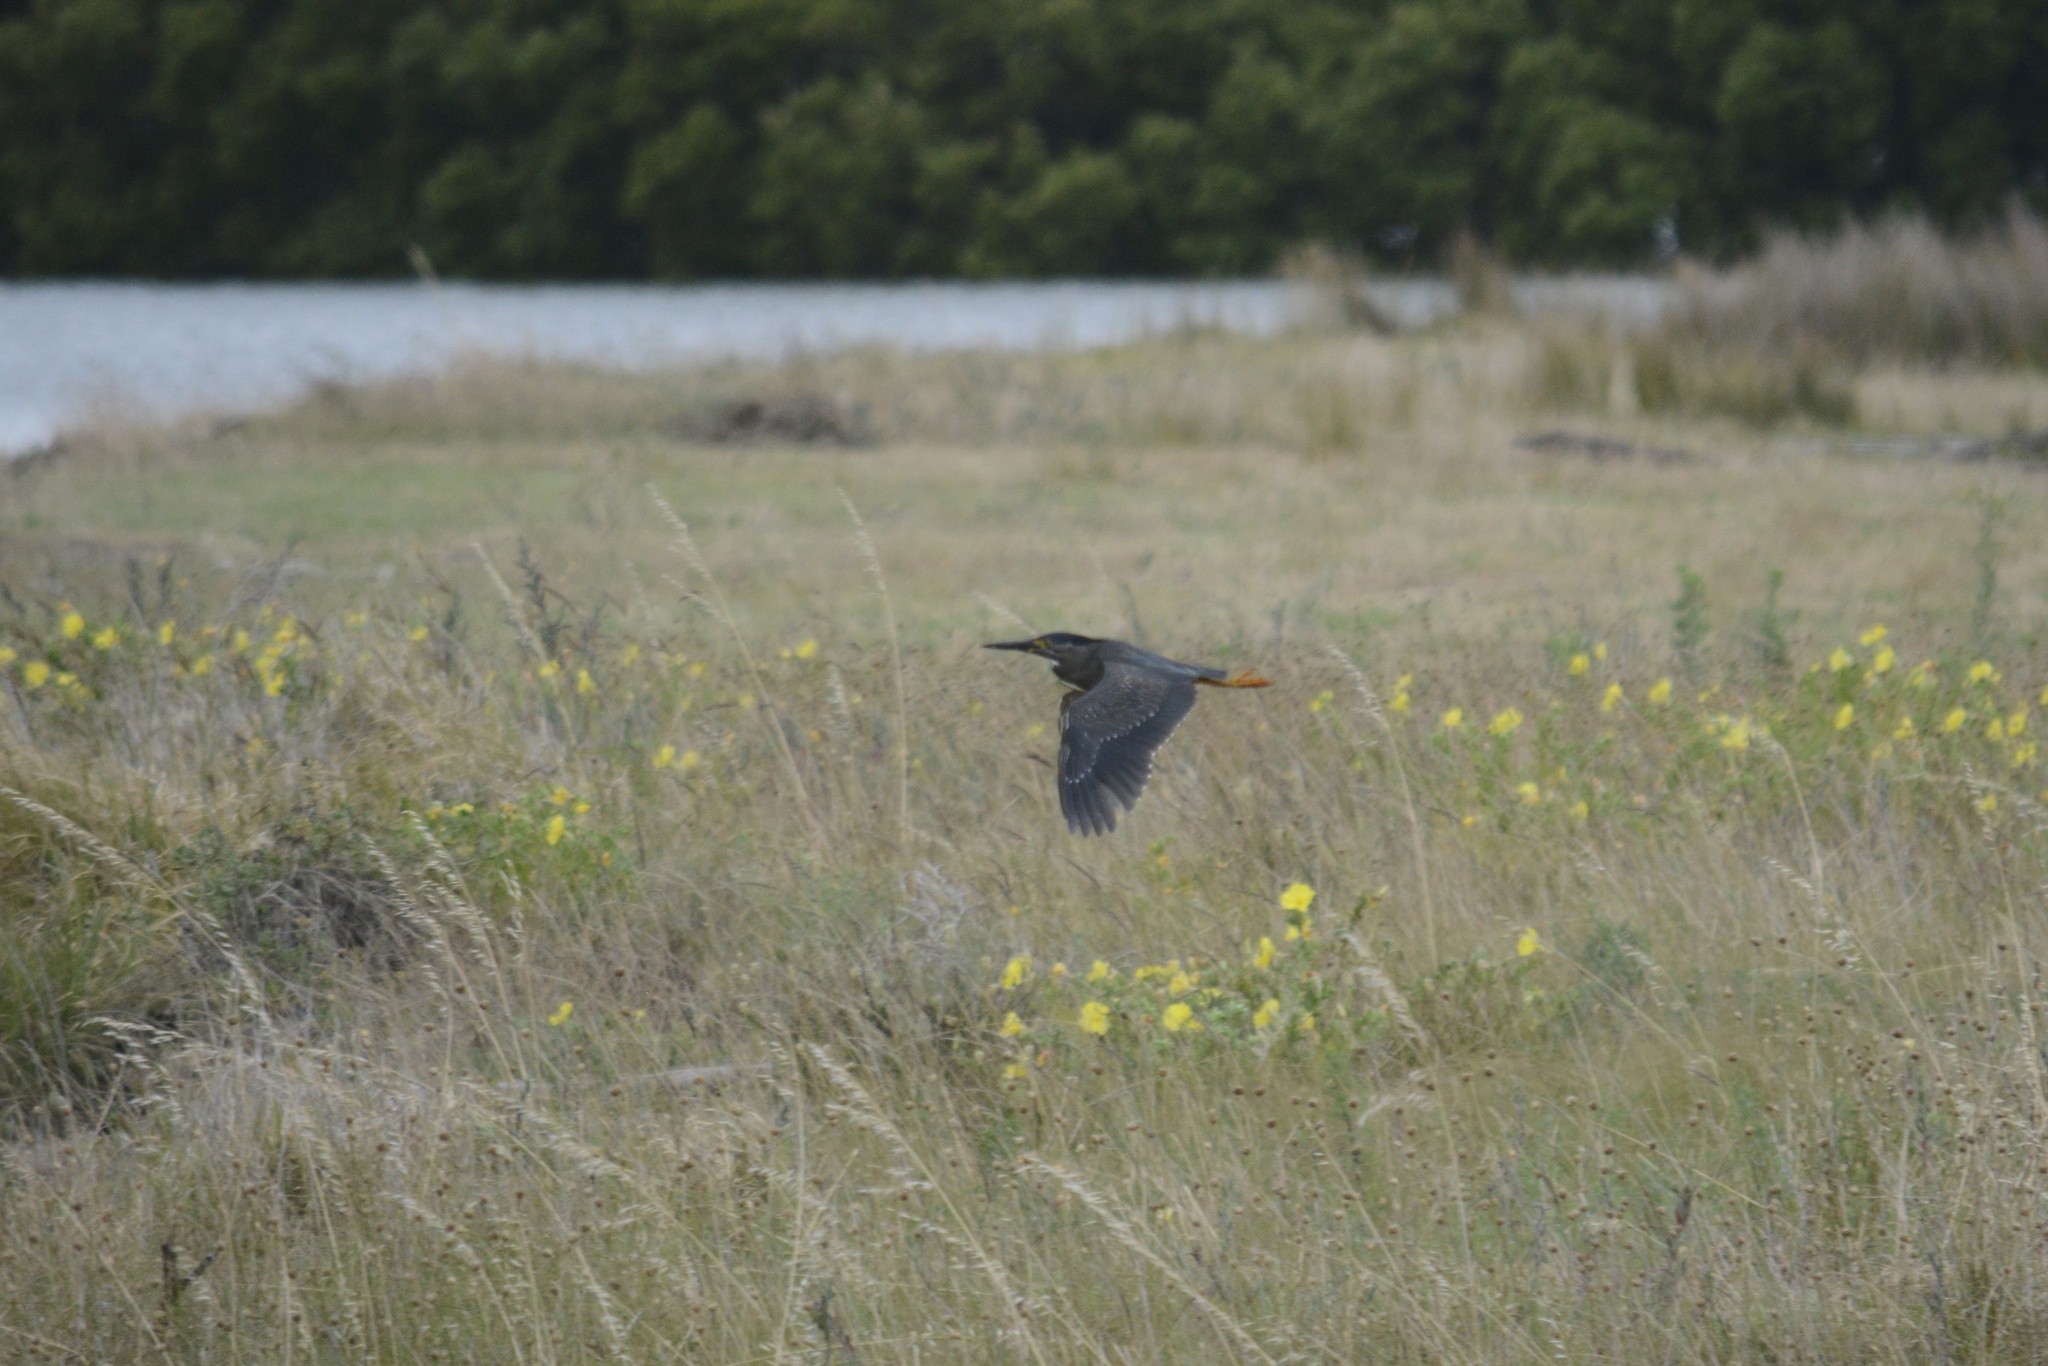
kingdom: Animalia
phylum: Chordata
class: Aves
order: Pelecaniformes
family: Ardeidae
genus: Butorides
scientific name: Butorides striata
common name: Striated heron
